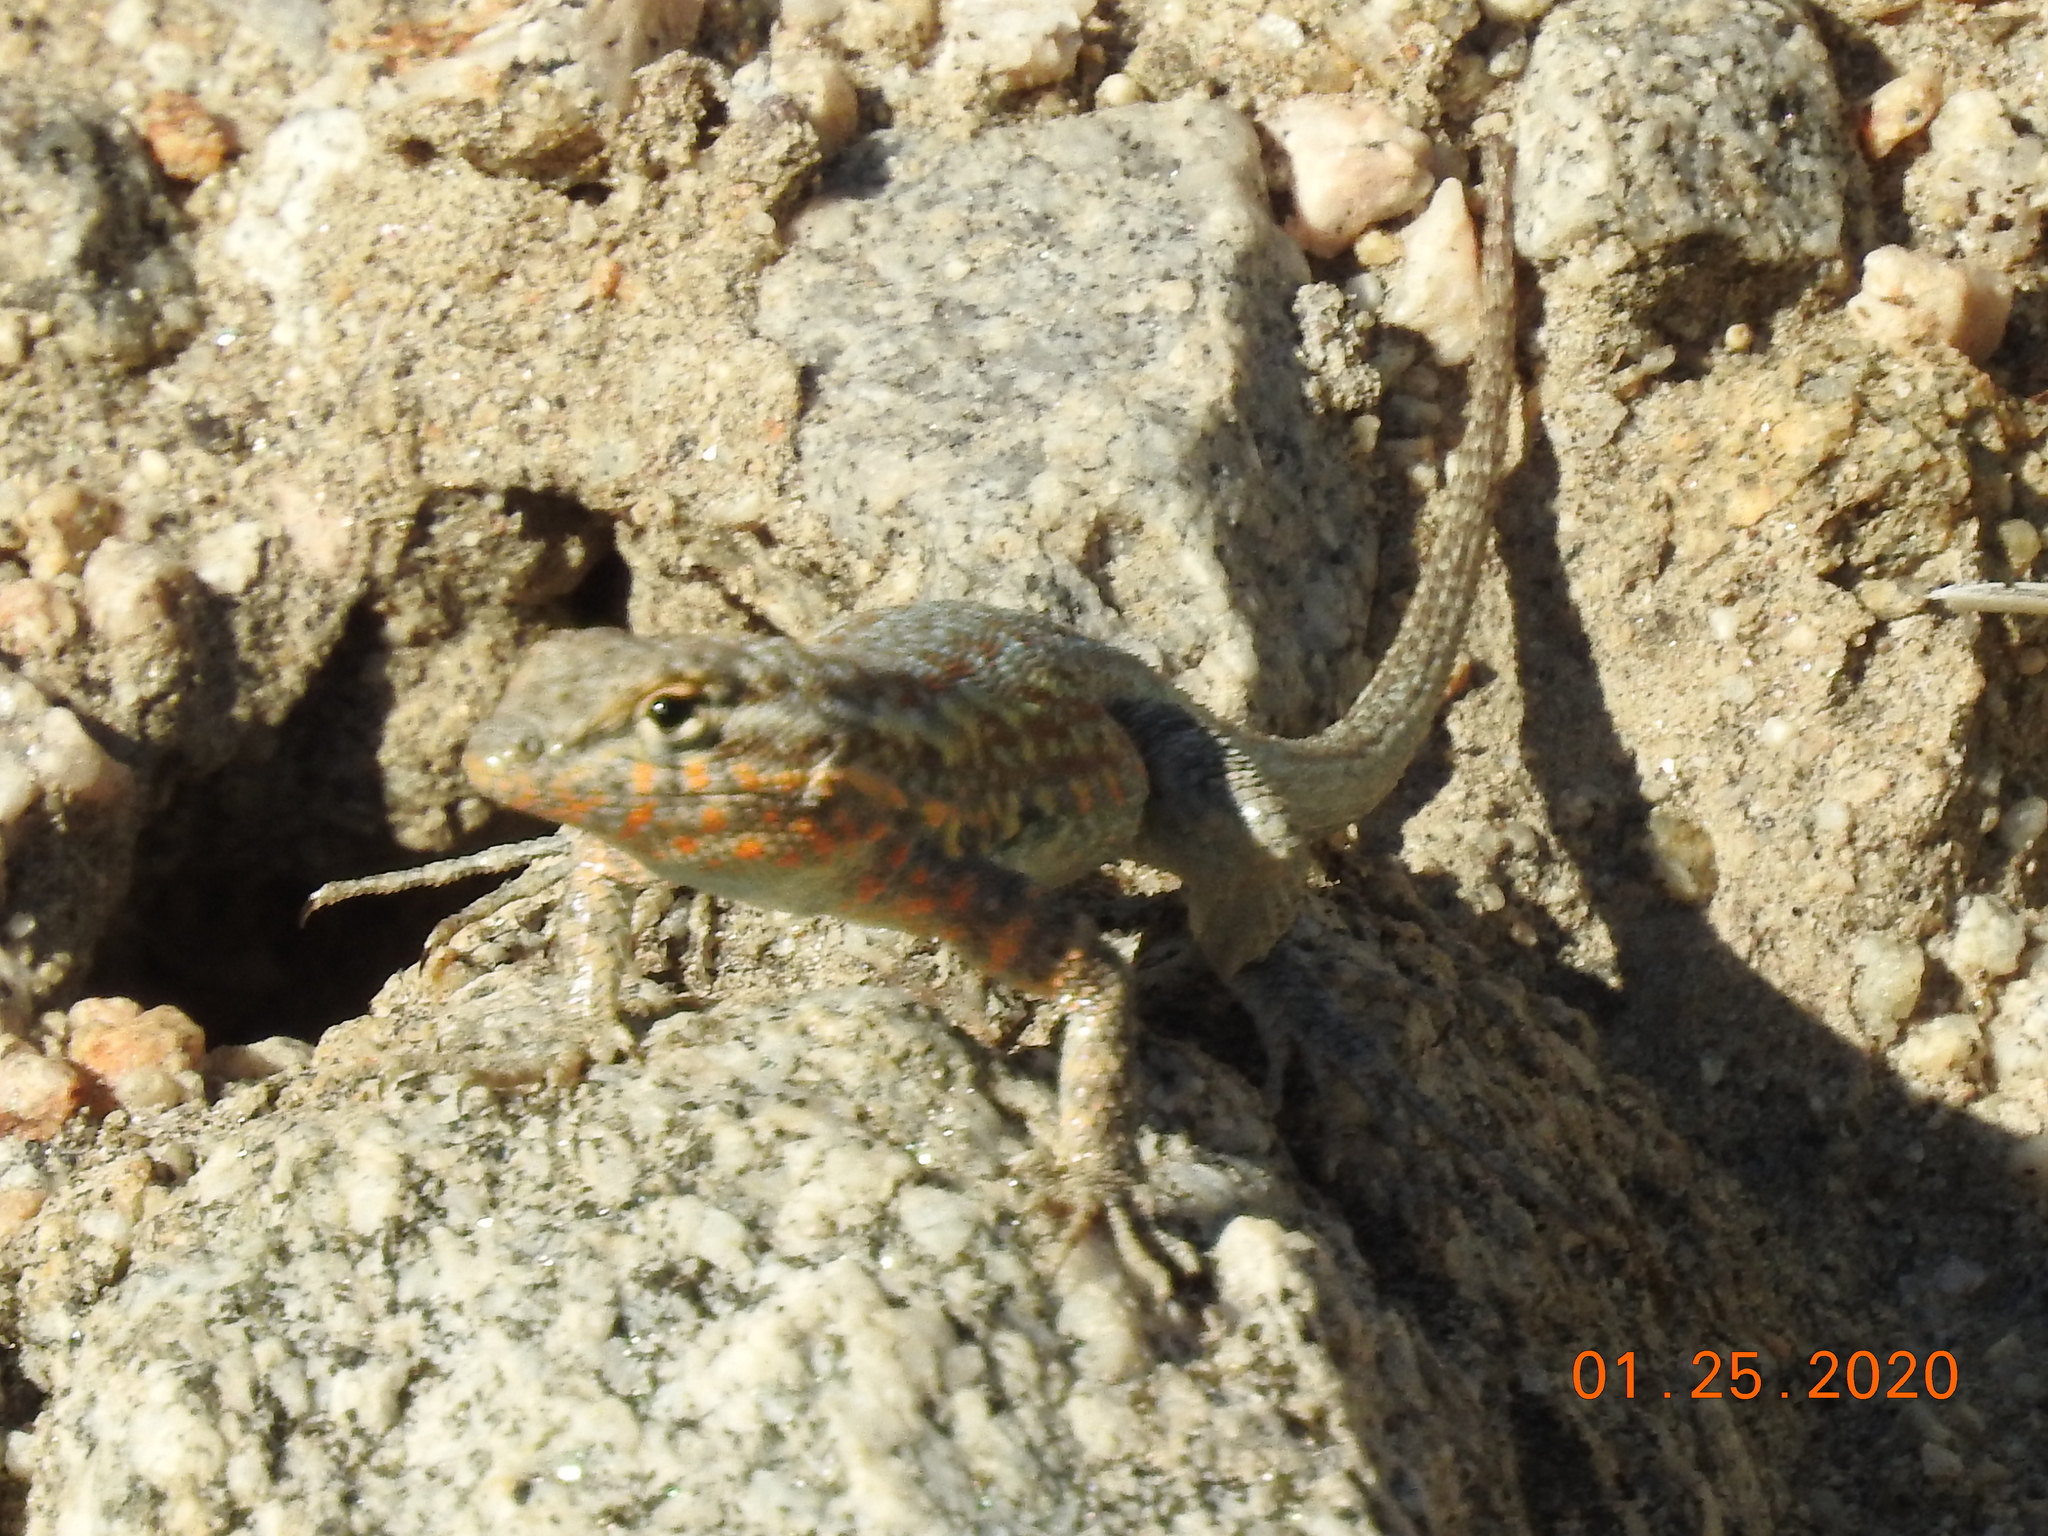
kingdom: Animalia
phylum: Chordata
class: Squamata
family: Phrynosomatidae
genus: Uta
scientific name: Uta stansburiana
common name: Side-blotched lizard
